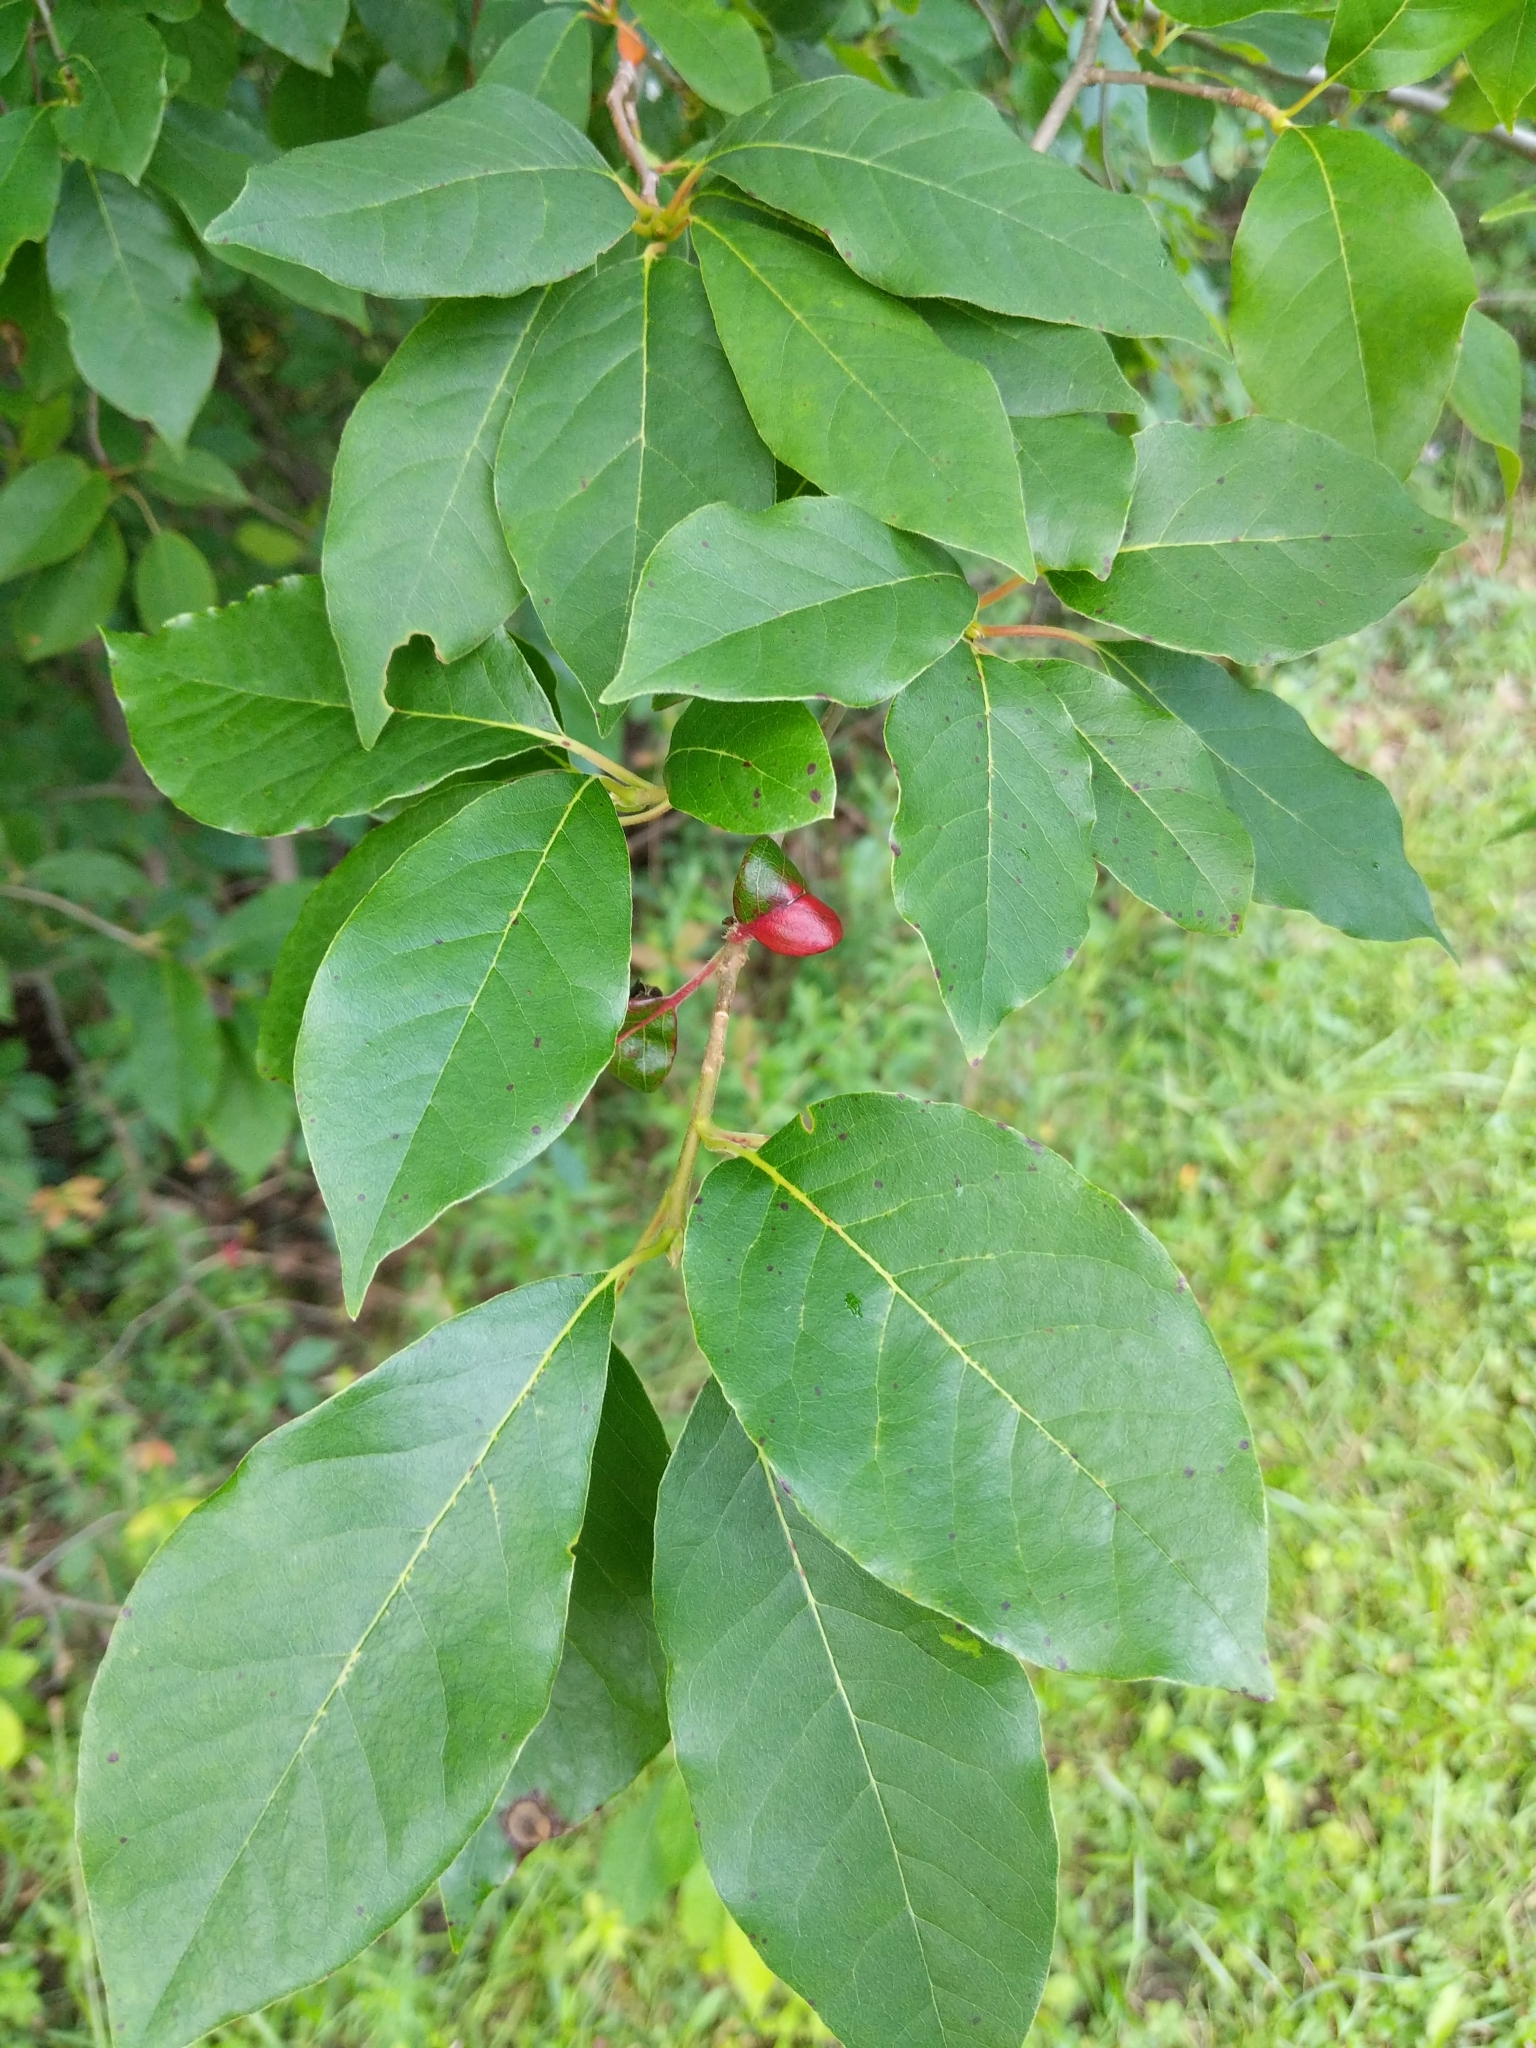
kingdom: Plantae
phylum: Tracheophyta
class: Magnoliopsida
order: Cornales
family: Nyssaceae
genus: Nyssa
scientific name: Nyssa sylvatica
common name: Black tupelo
